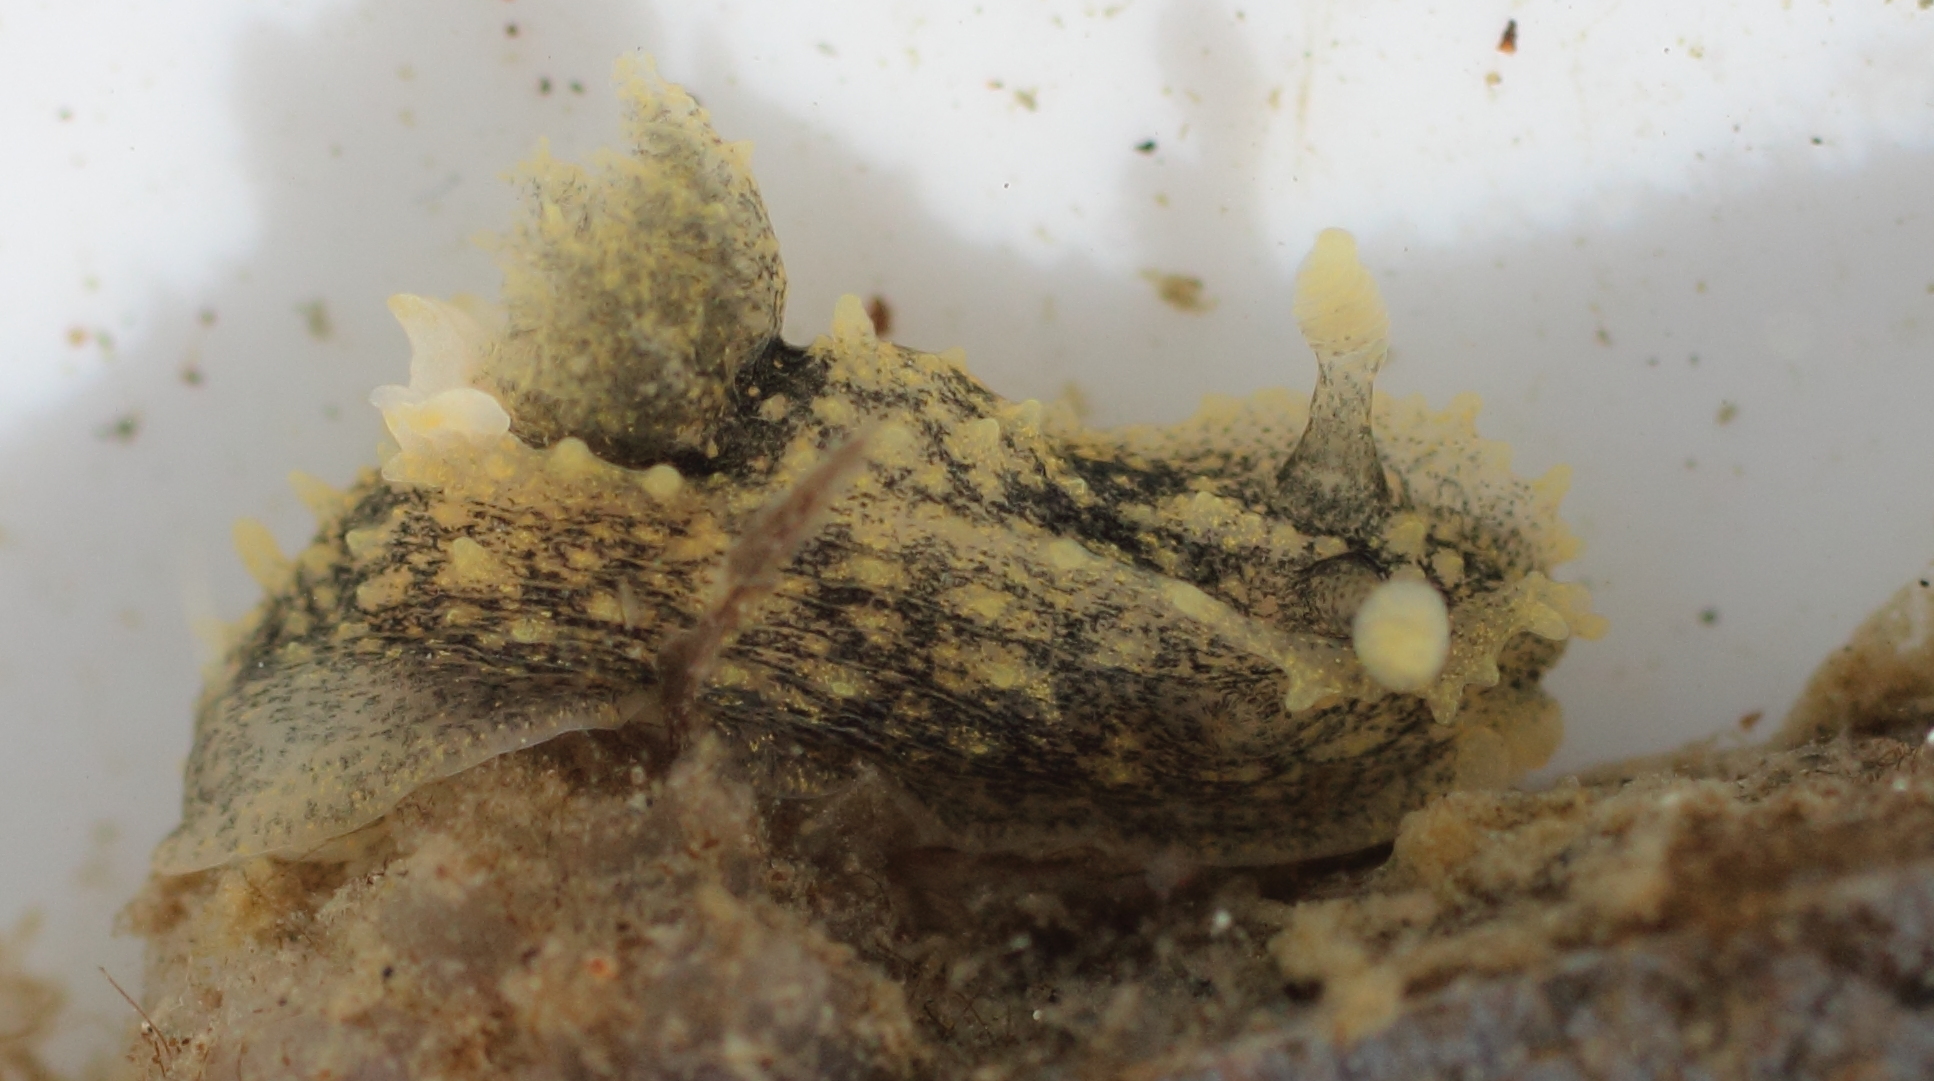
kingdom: Animalia
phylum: Mollusca
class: Gastropoda
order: Nudibranchia
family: Polyceridae
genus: Palio
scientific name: Palio nothus
